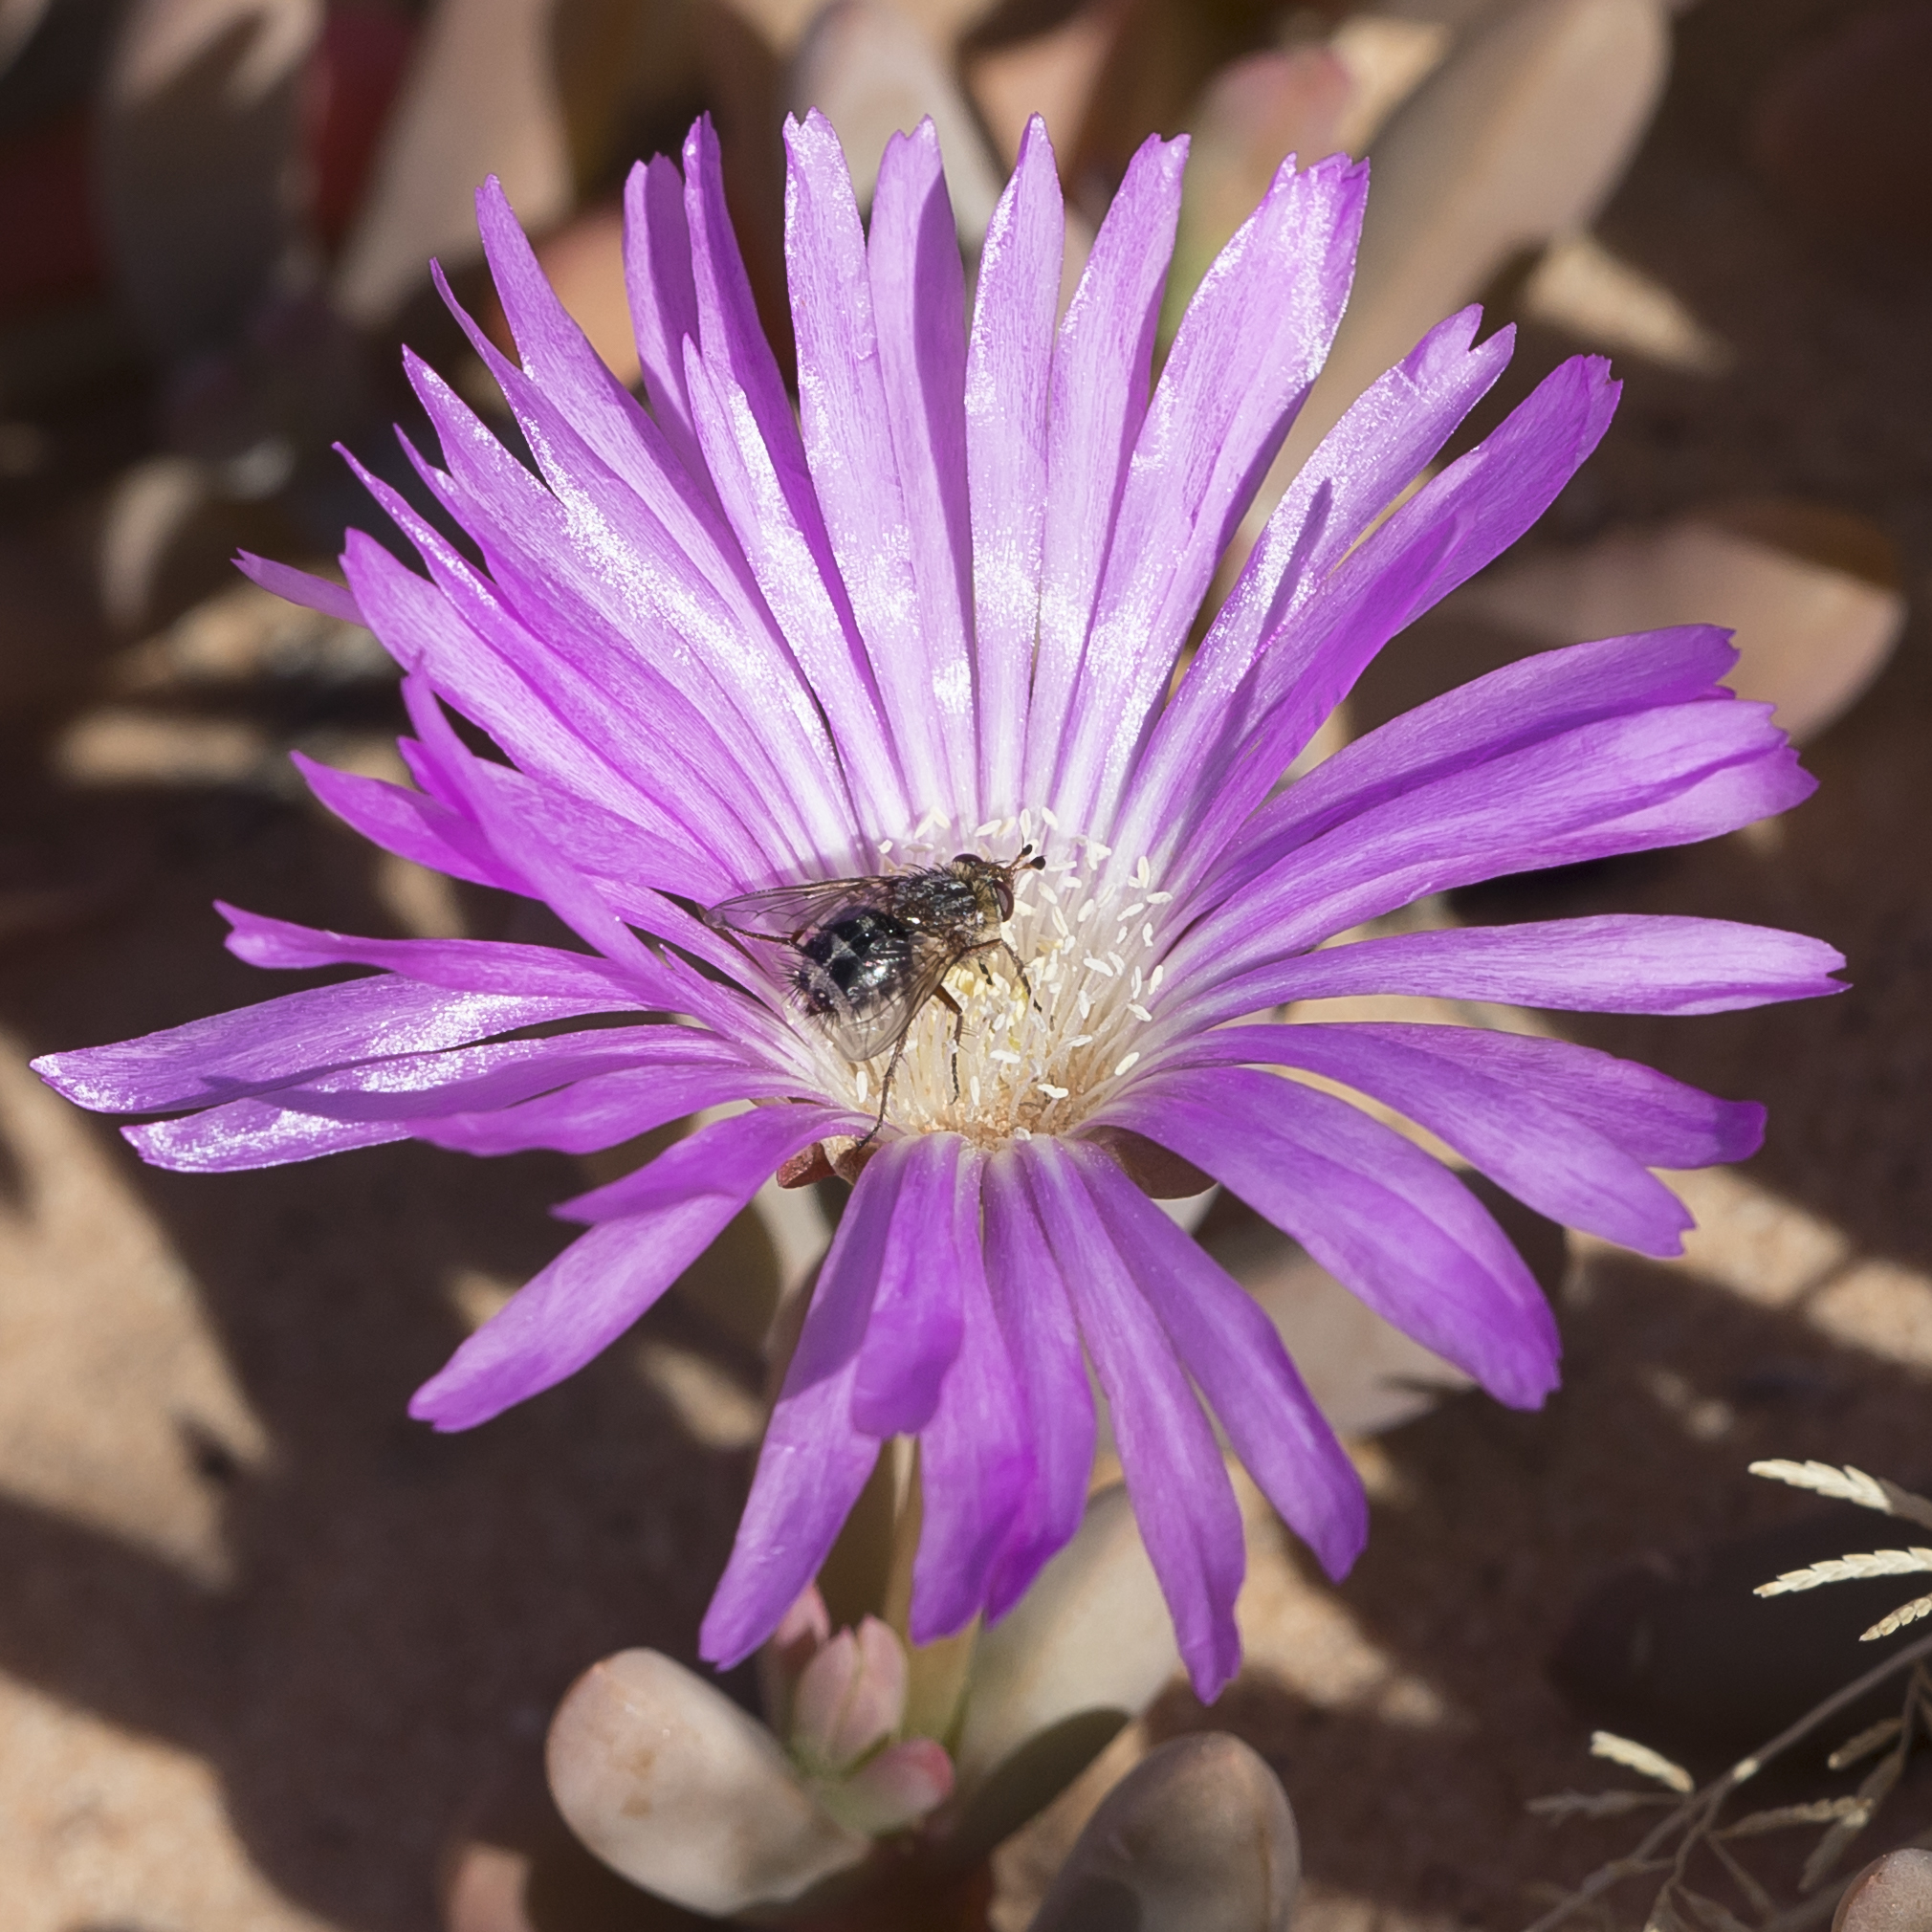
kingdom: Plantae
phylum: Tracheophyta
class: Magnoliopsida
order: Caryophyllales
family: Aizoaceae
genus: Disphyma
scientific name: Disphyma clavellatum
